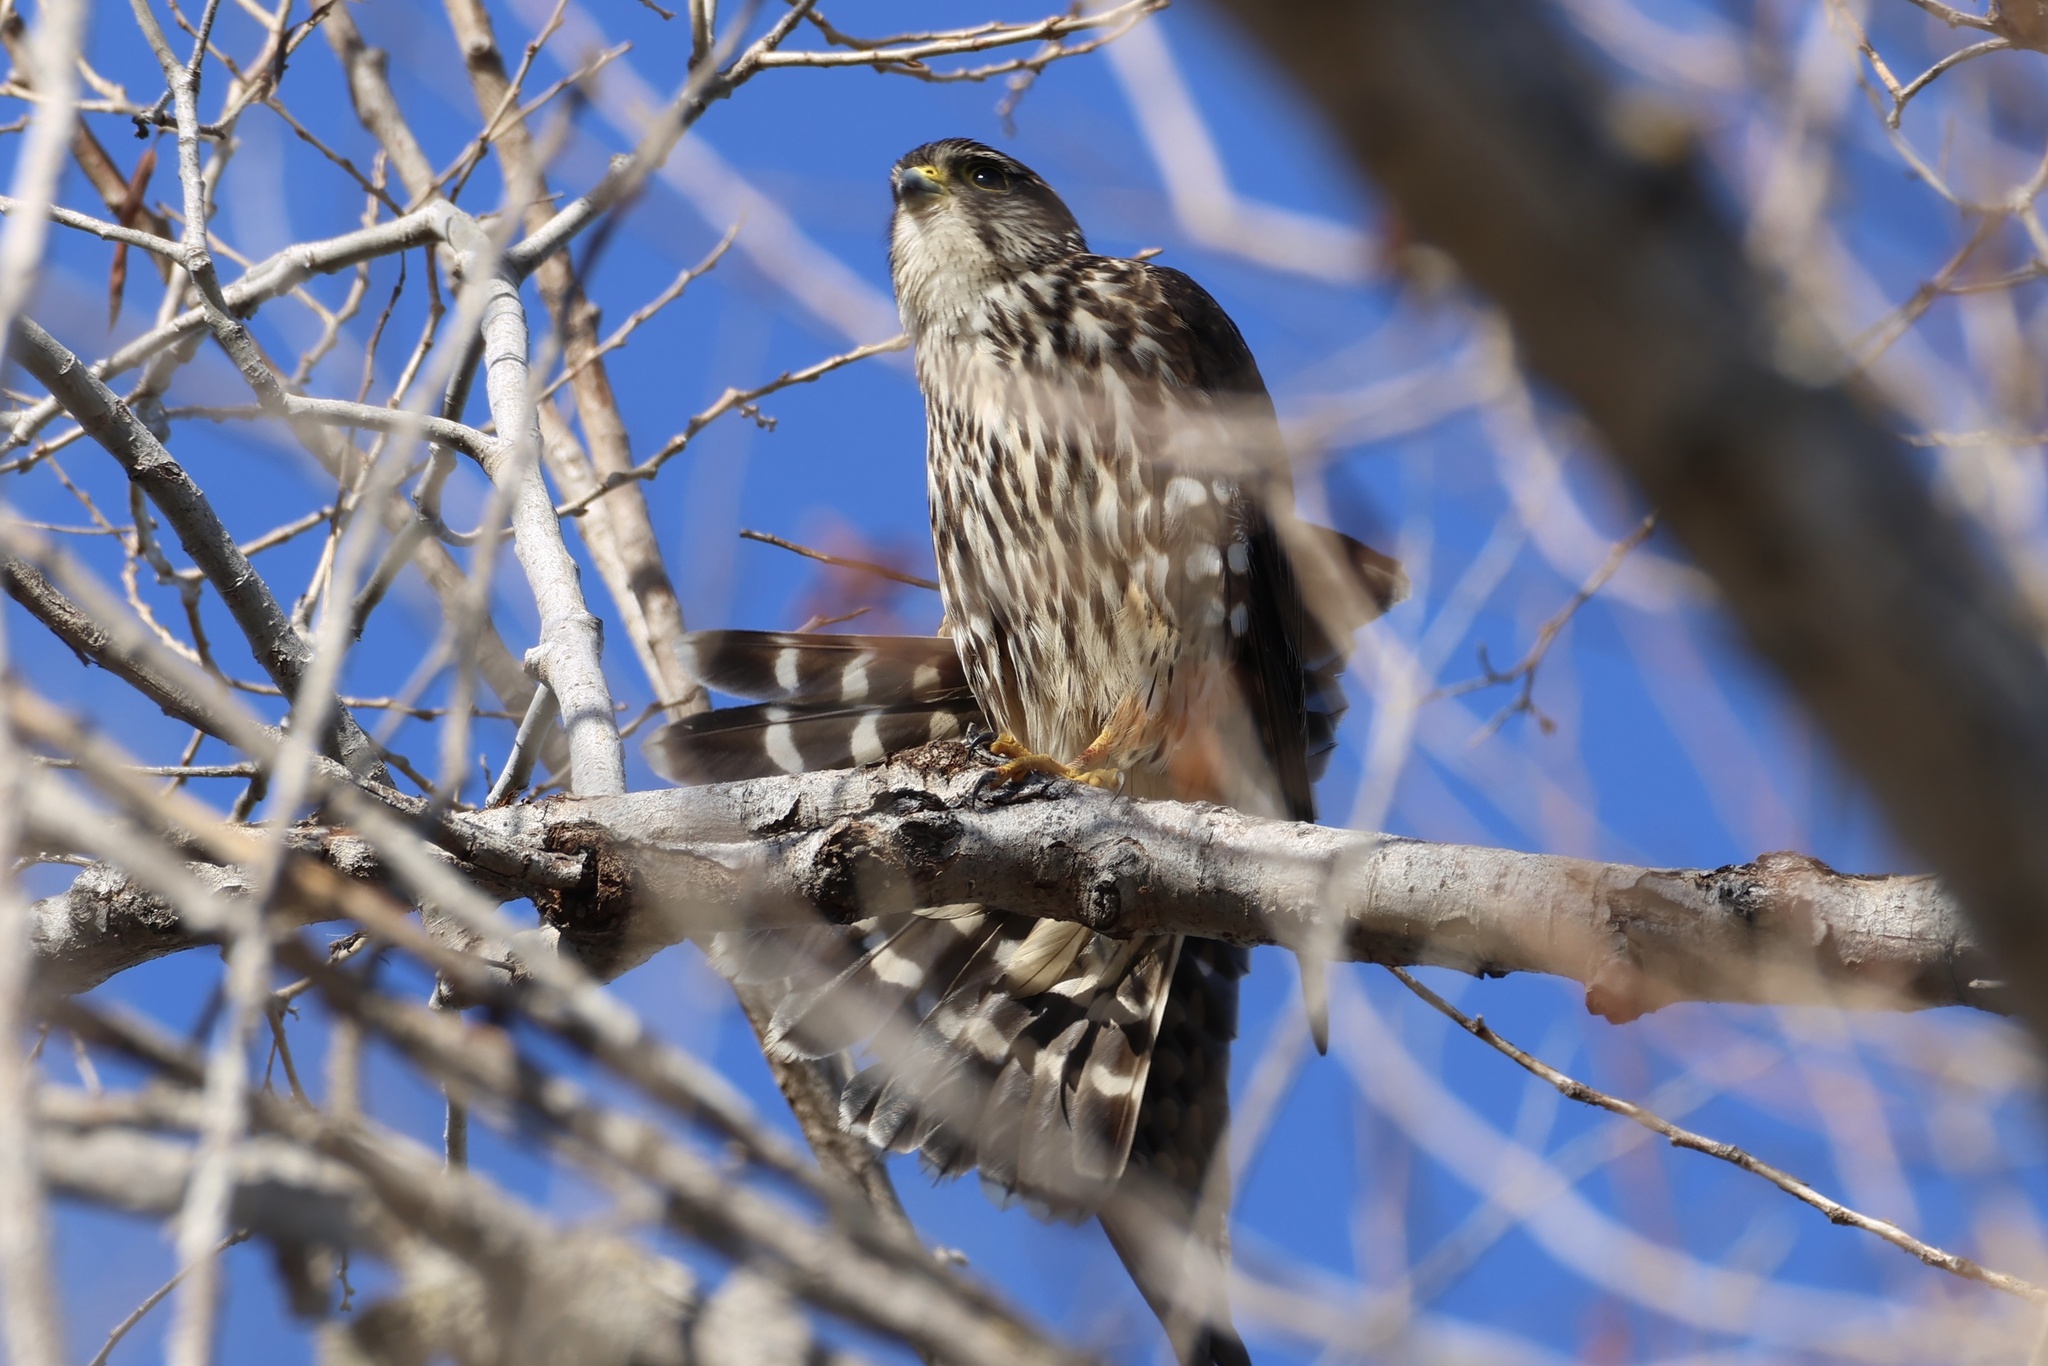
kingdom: Animalia
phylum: Chordata
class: Aves
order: Falconiformes
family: Falconidae
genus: Falco
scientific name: Falco columbarius
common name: Merlin
